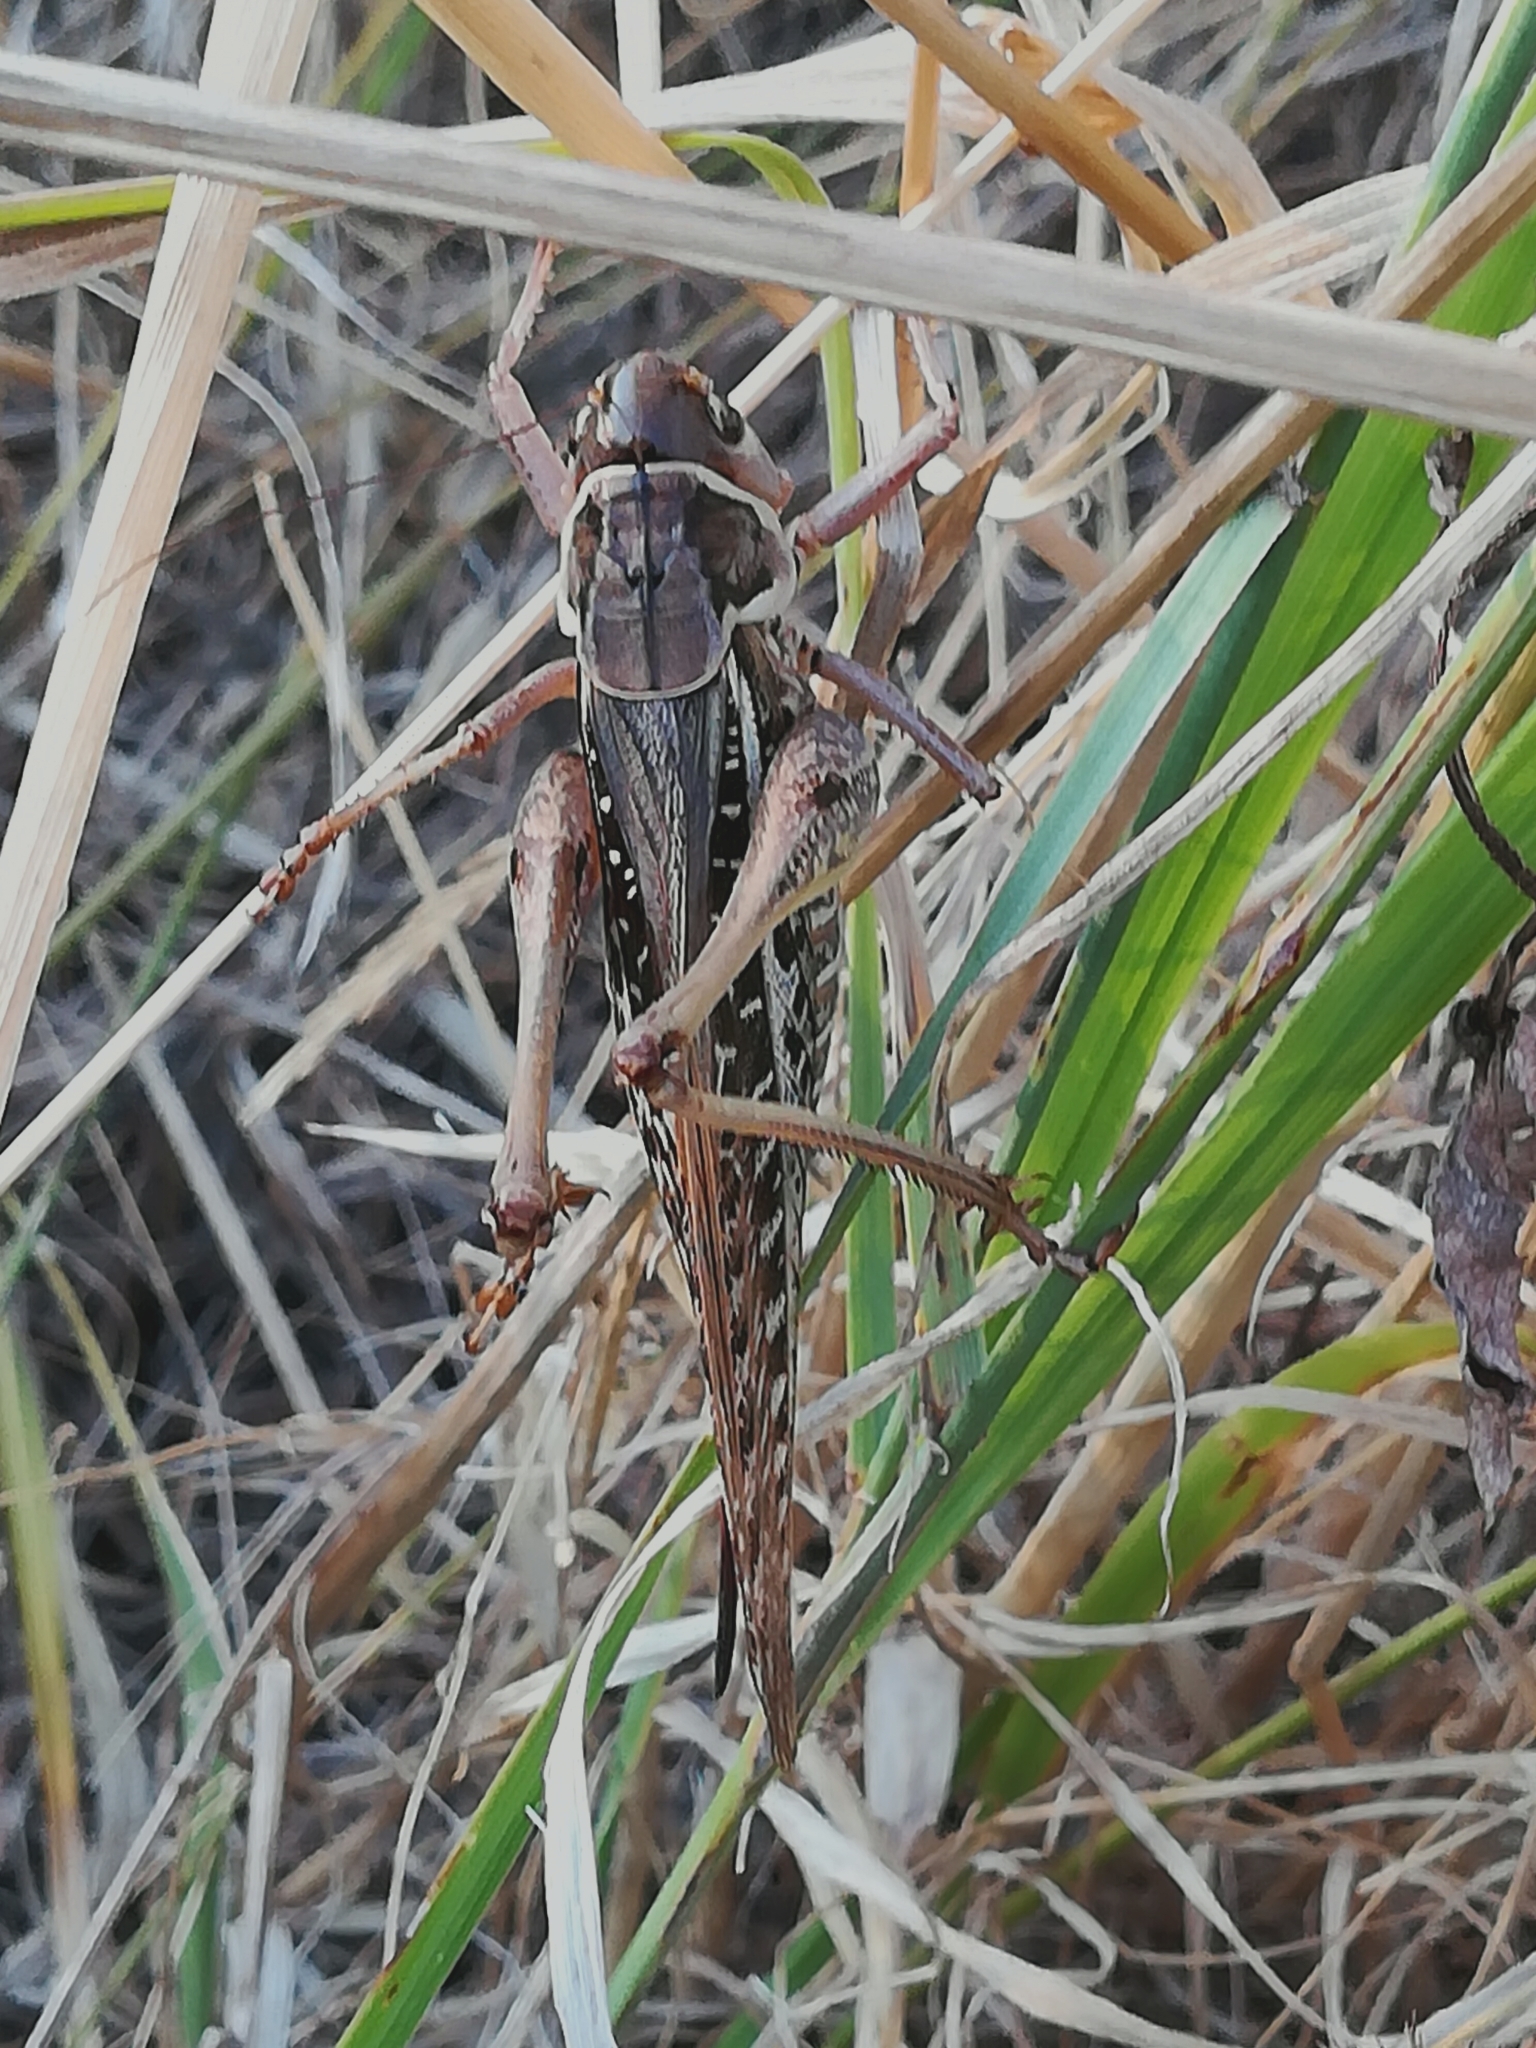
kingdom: Animalia
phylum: Arthropoda
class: Insecta
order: Orthoptera
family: Tettigoniidae
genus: Decticus
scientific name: Decticus albifrons
